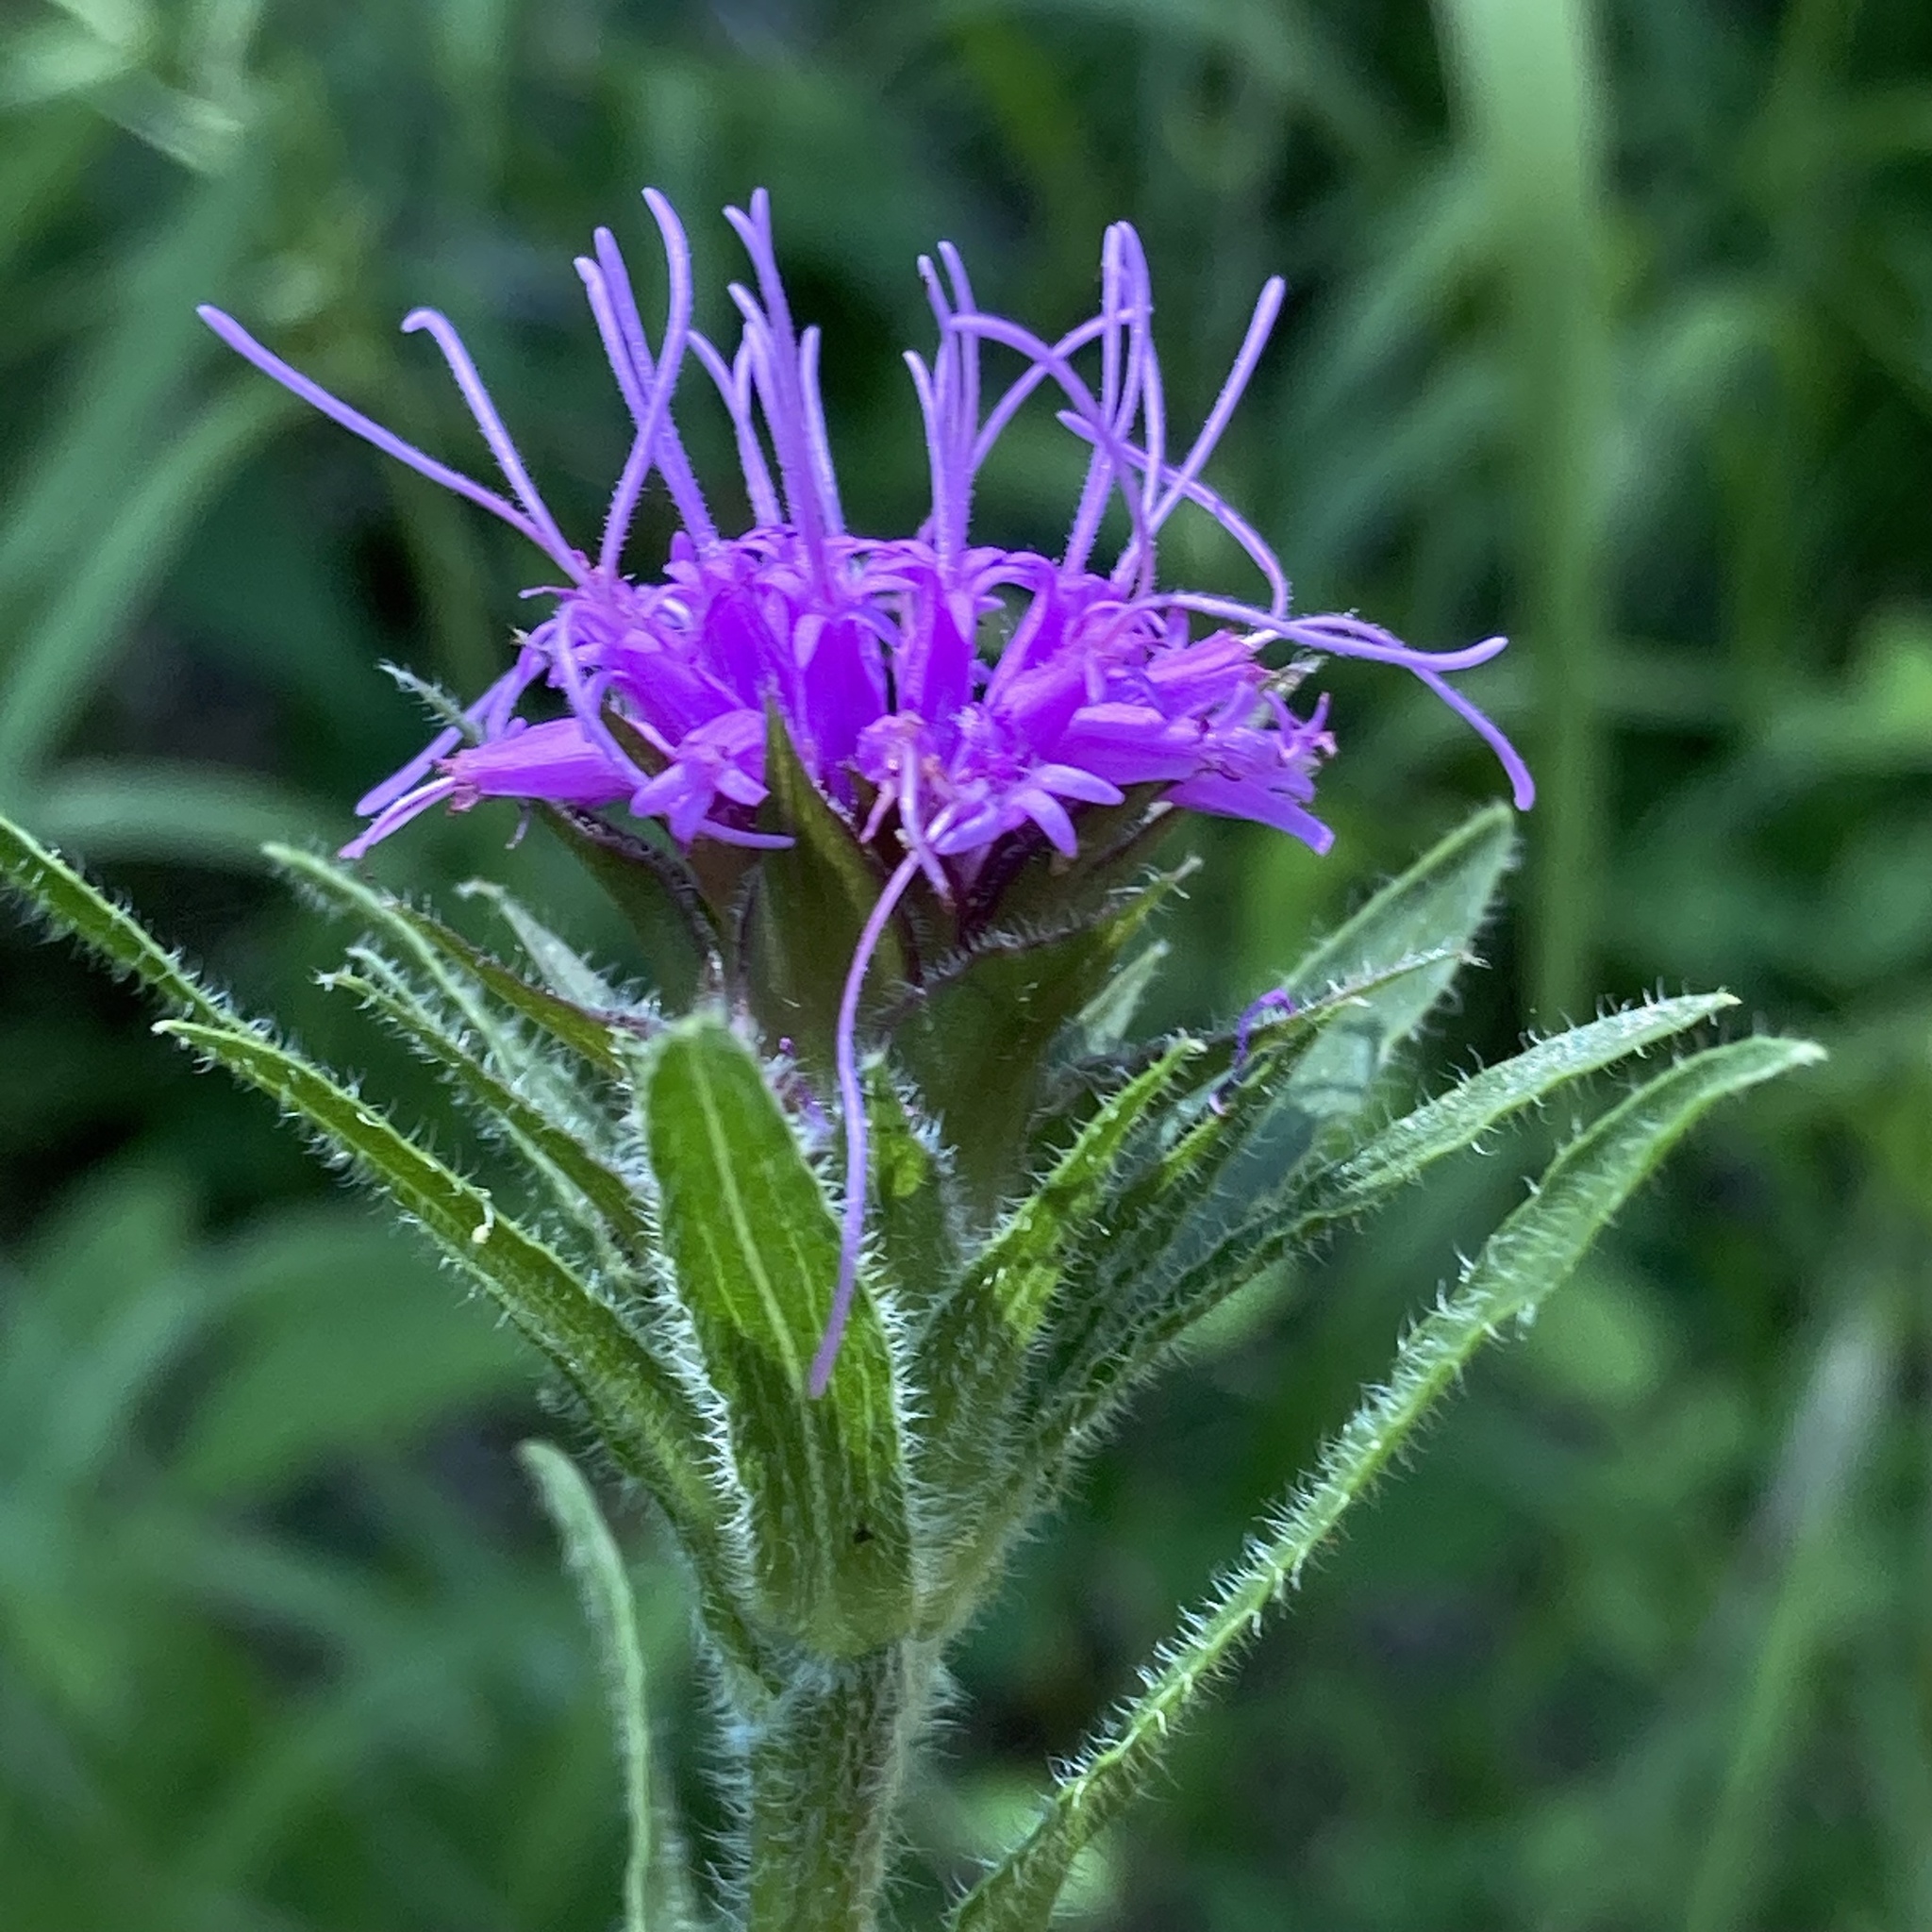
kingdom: Plantae
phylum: Tracheophyta
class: Magnoliopsida
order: Asterales
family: Asteraceae
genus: Liatris
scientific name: Liatris squarrosa
